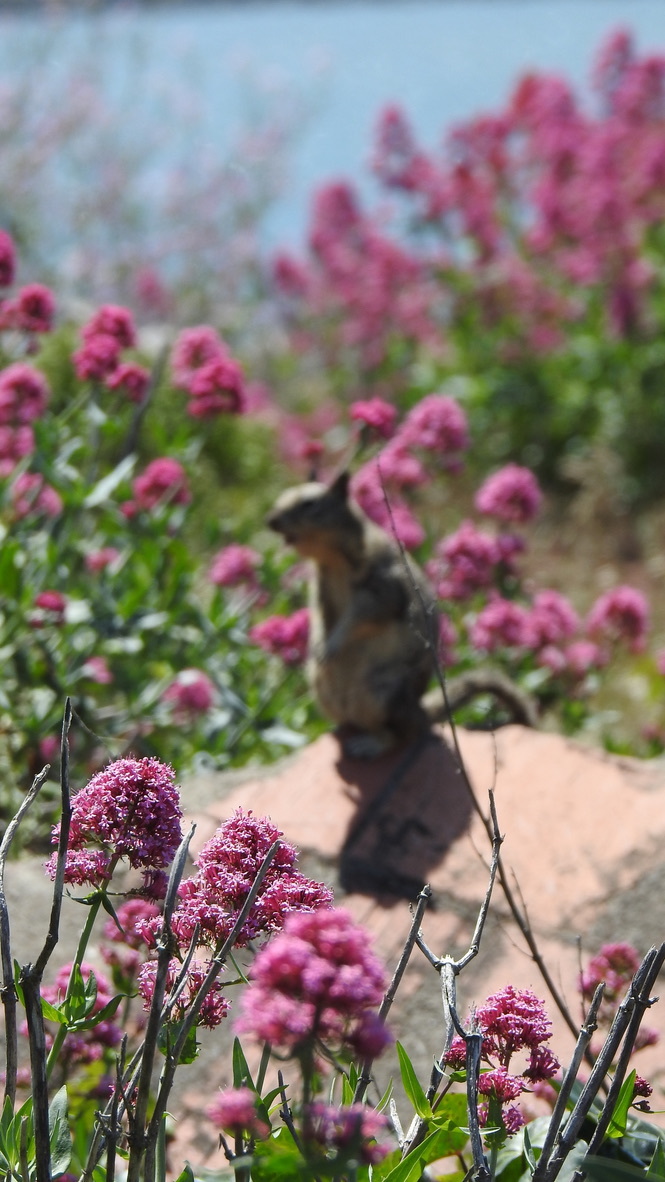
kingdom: Plantae
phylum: Tracheophyta
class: Magnoliopsida
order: Dipsacales
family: Caprifoliaceae
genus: Centranthus
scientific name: Centranthus ruber
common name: Red valerian
